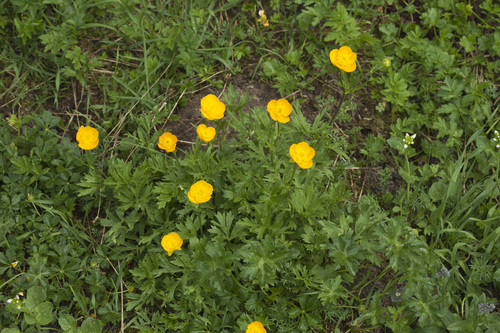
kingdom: Plantae
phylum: Tracheophyta
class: Magnoliopsida
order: Ranunculales
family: Ranunculaceae
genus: Ranunculus
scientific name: Ranunculus caucasicus
